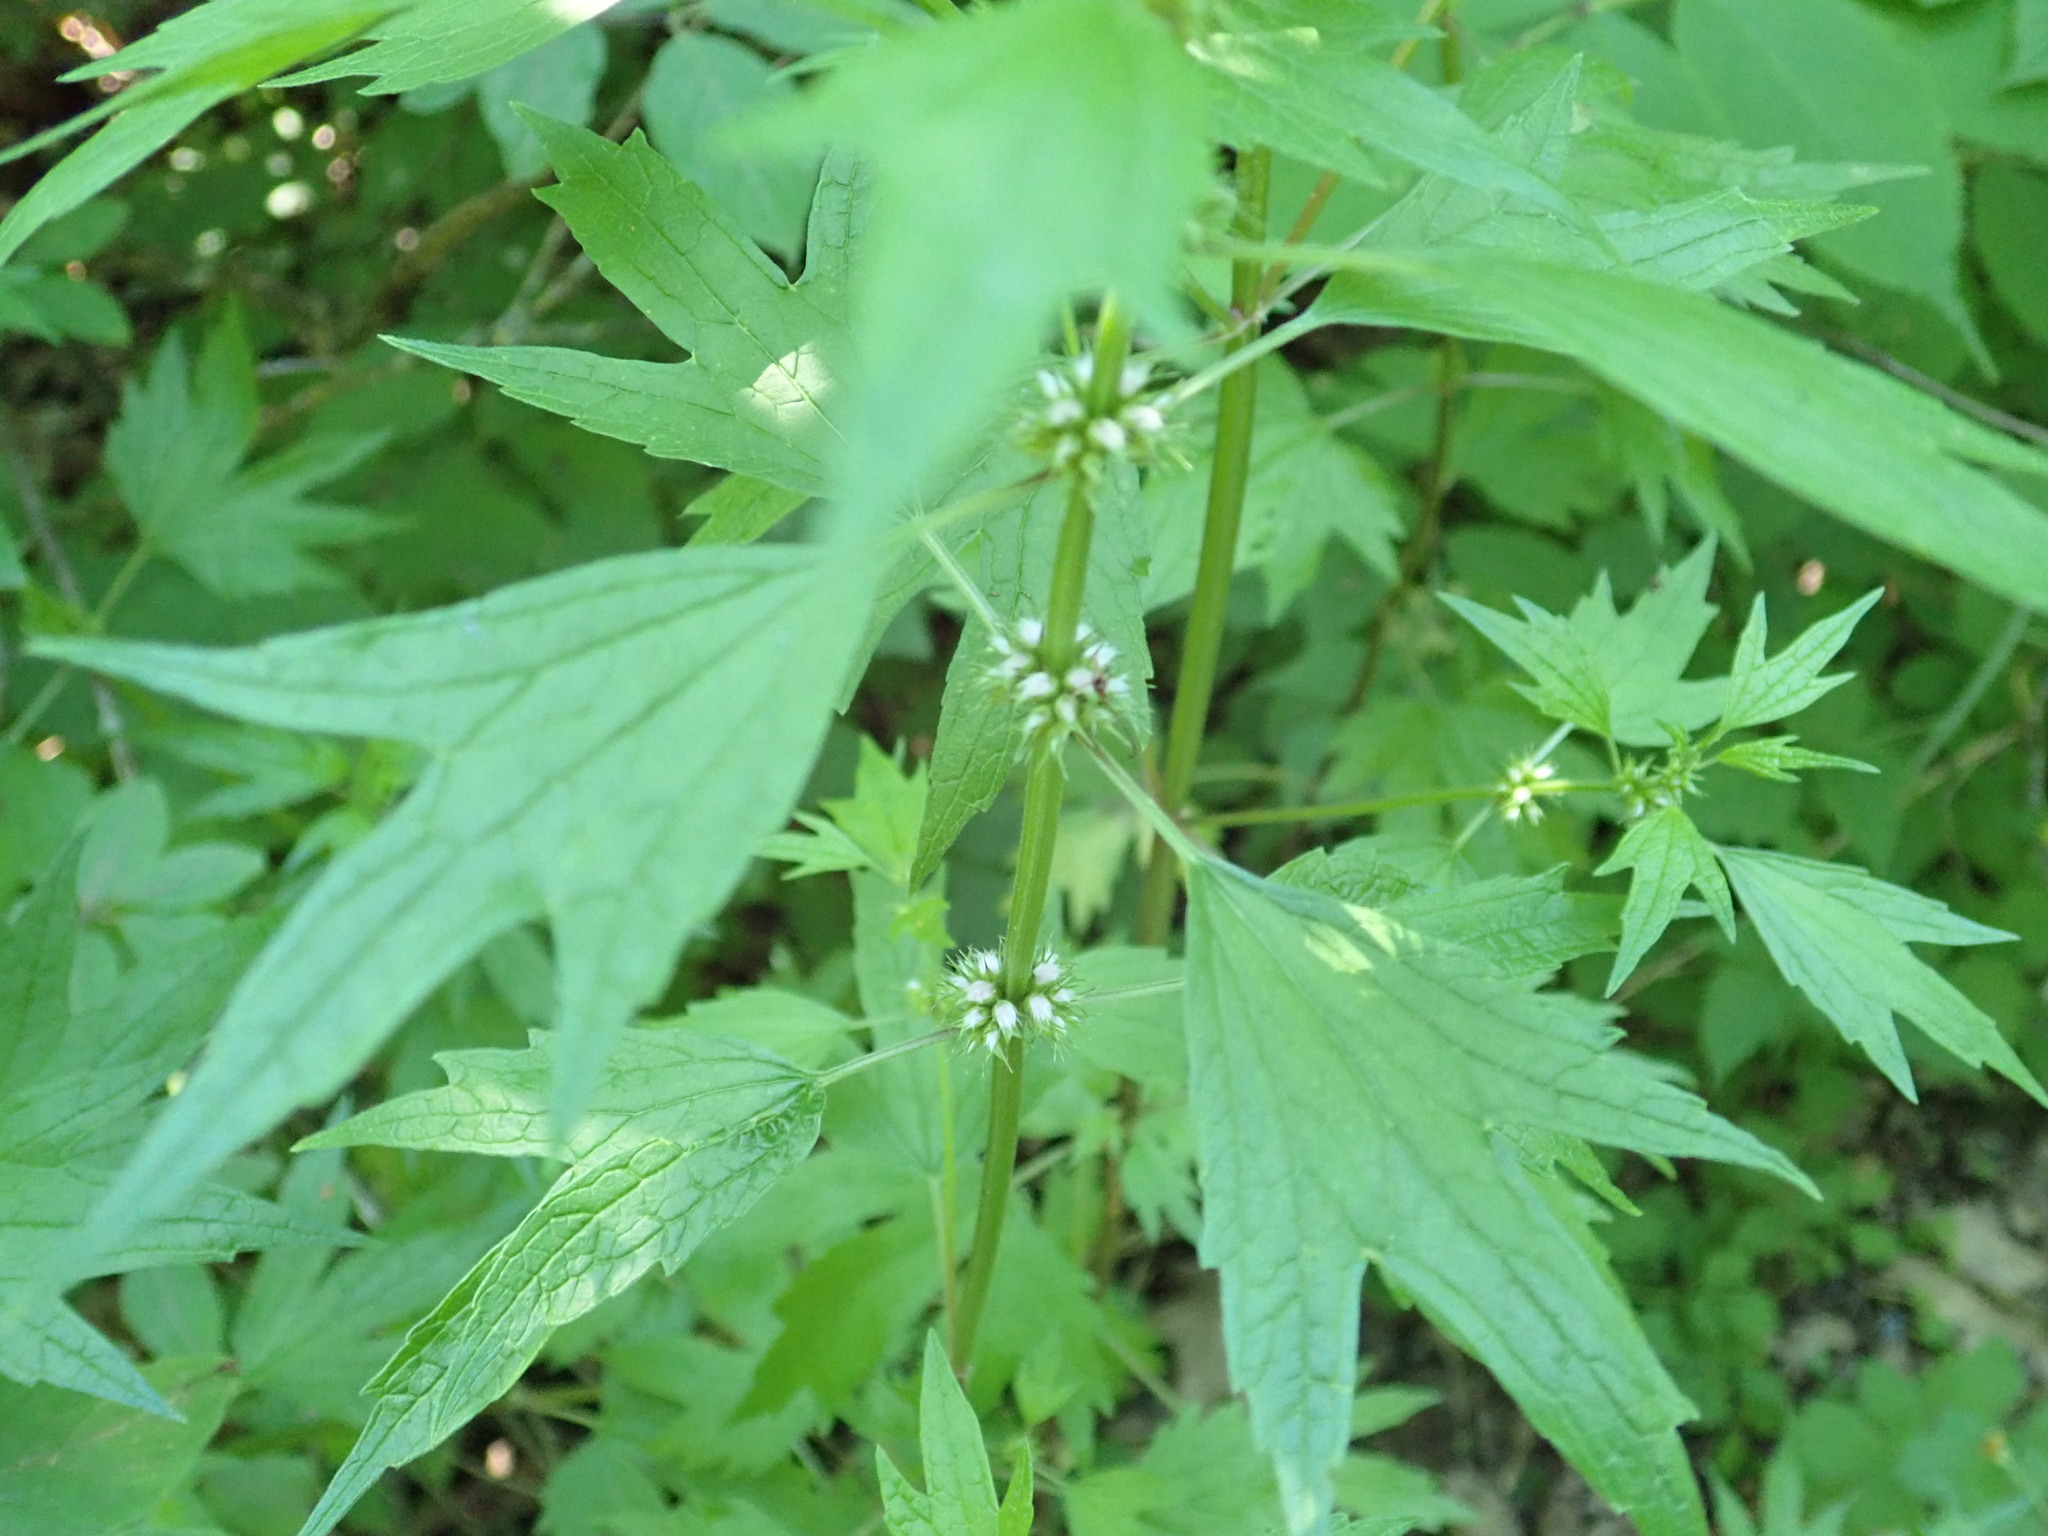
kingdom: Plantae
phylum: Tracheophyta
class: Magnoliopsida
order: Lamiales
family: Lamiaceae
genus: Leonurus
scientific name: Leonurus cardiaca
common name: Motherwort
